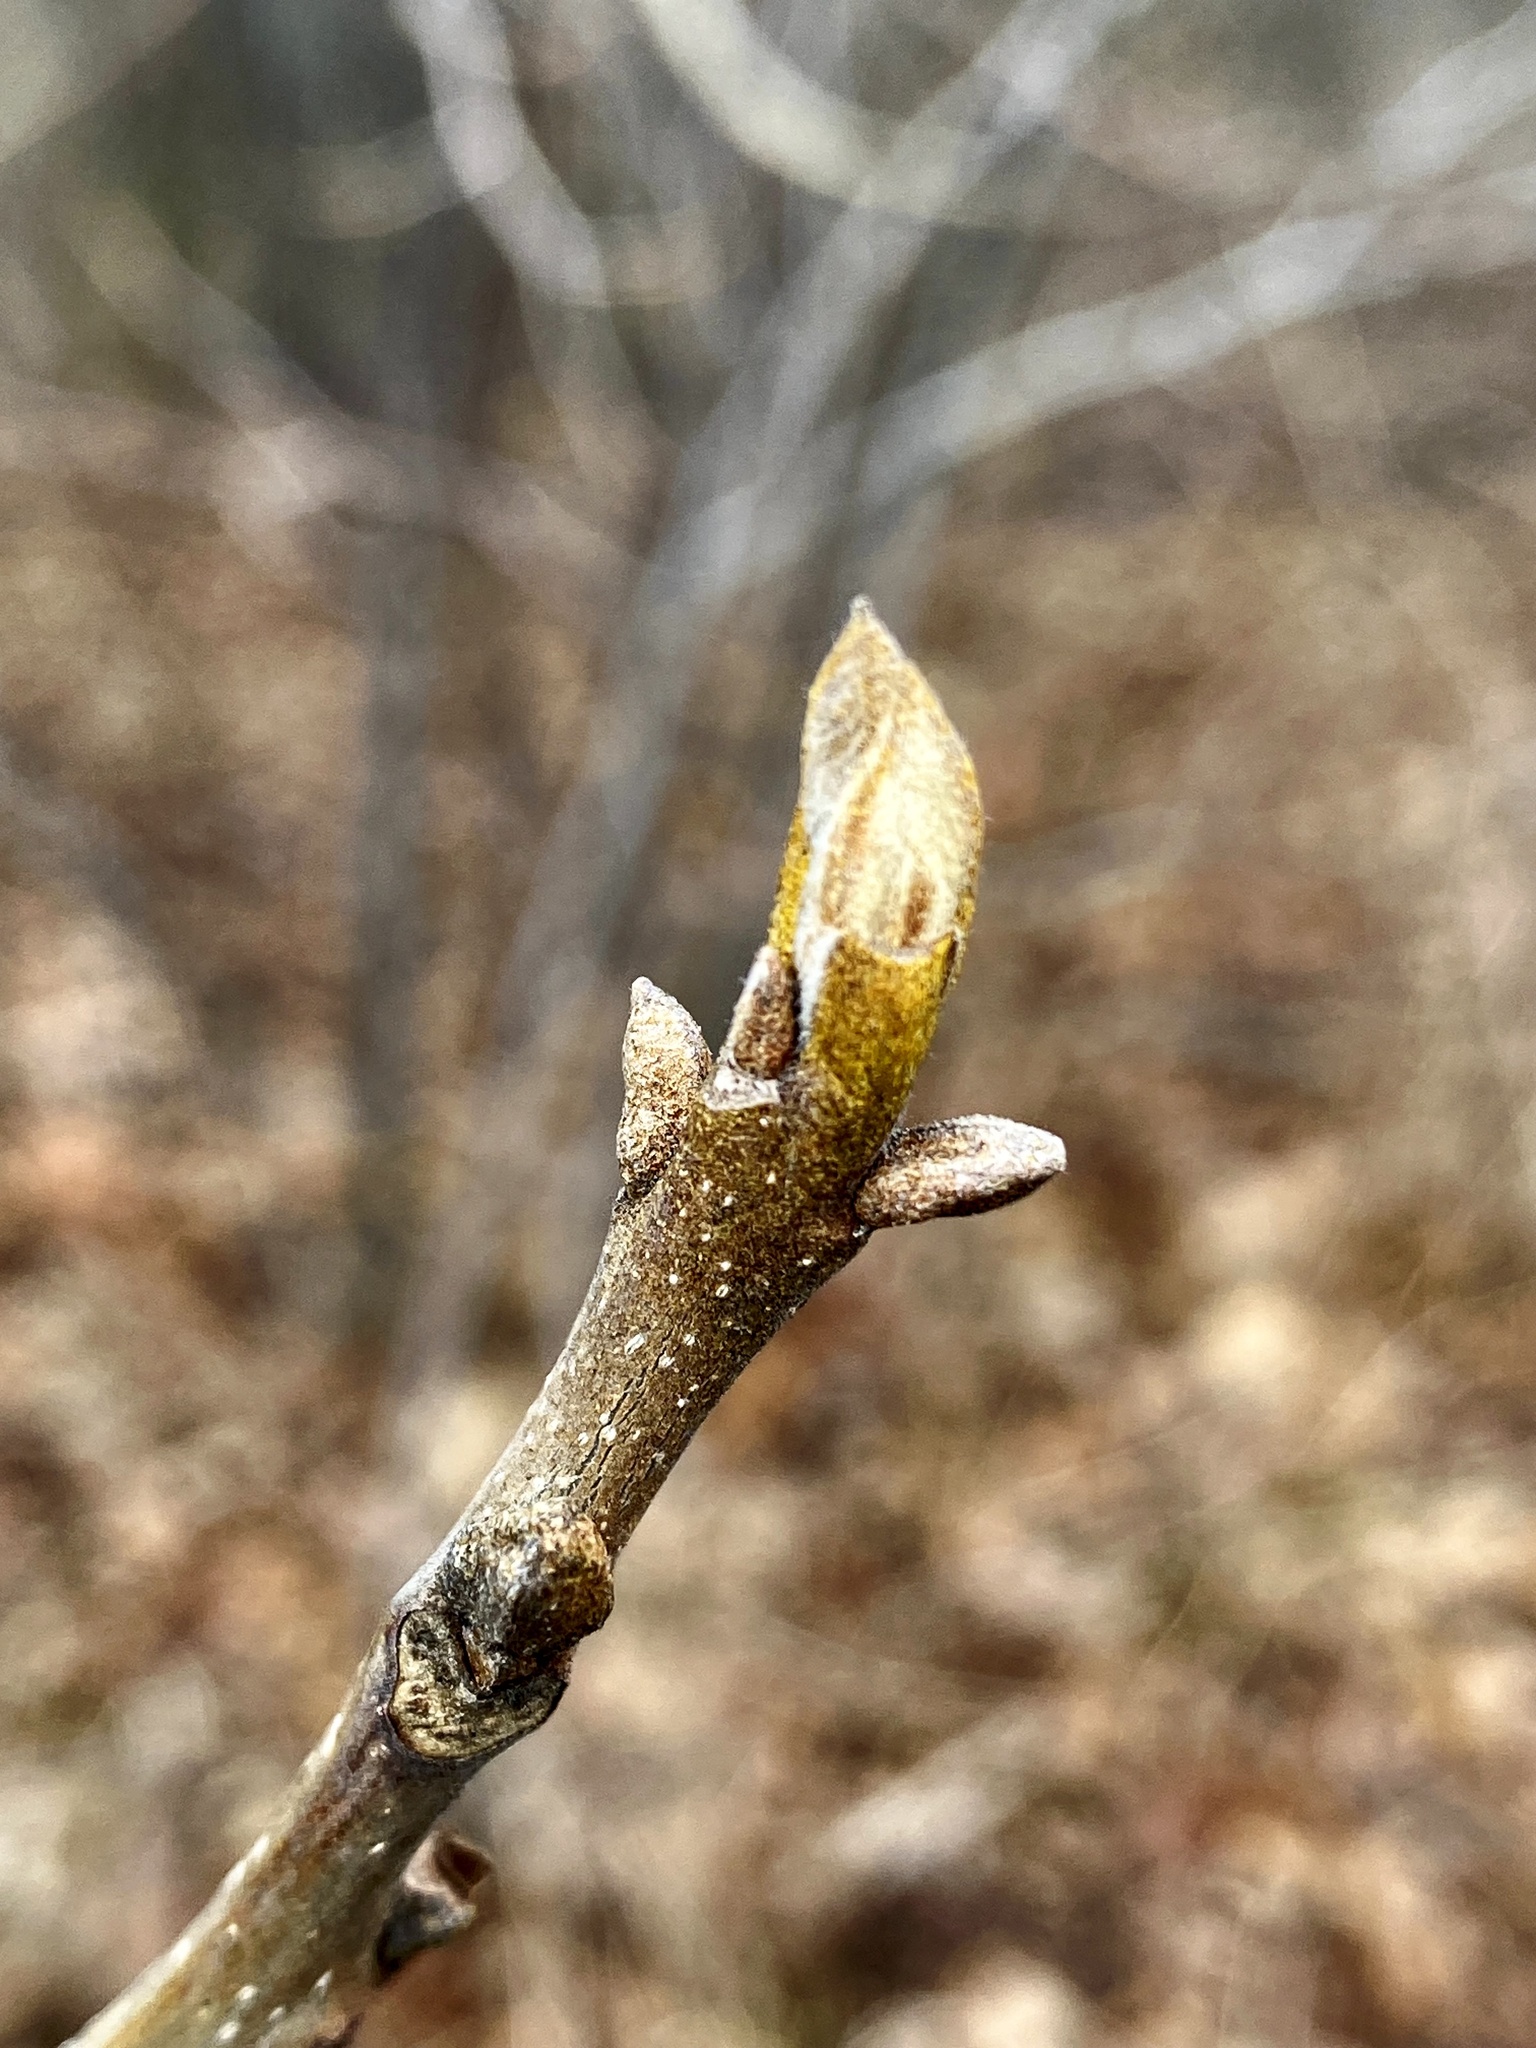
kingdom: Plantae
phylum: Tracheophyta
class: Magnoliopsida
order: Fagales
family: Juglandaceae
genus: Carya
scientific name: Carya cordiformis
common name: Bitternut hickory
